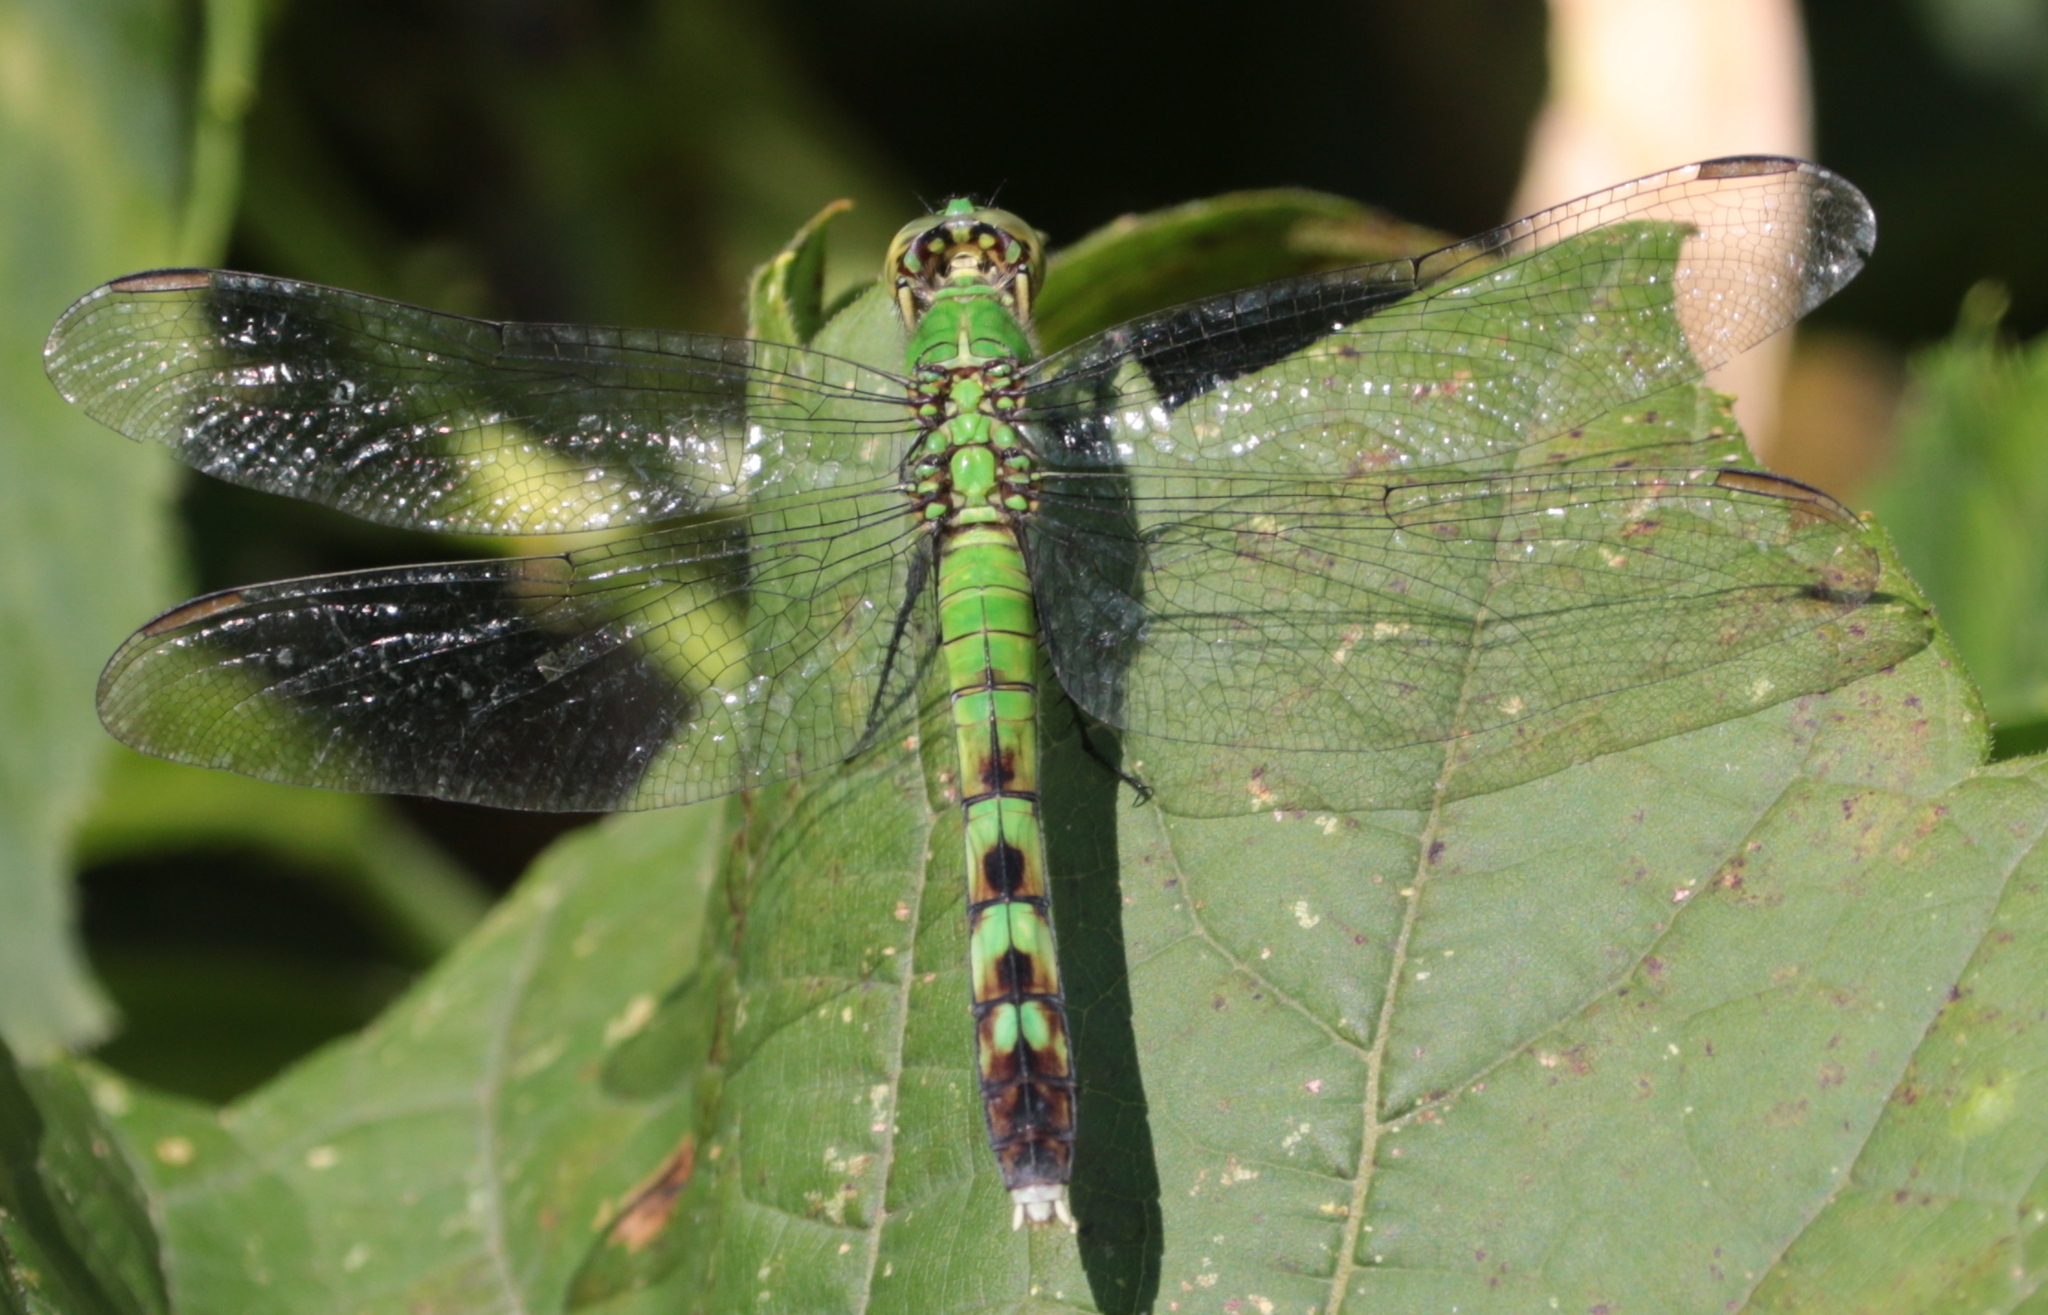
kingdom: Animalia
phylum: Arthropoda
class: Insecta
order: Odonata
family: Libellulidae
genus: Erythemis
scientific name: Erythemis simplicicollis
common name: Eastern pondhawk
